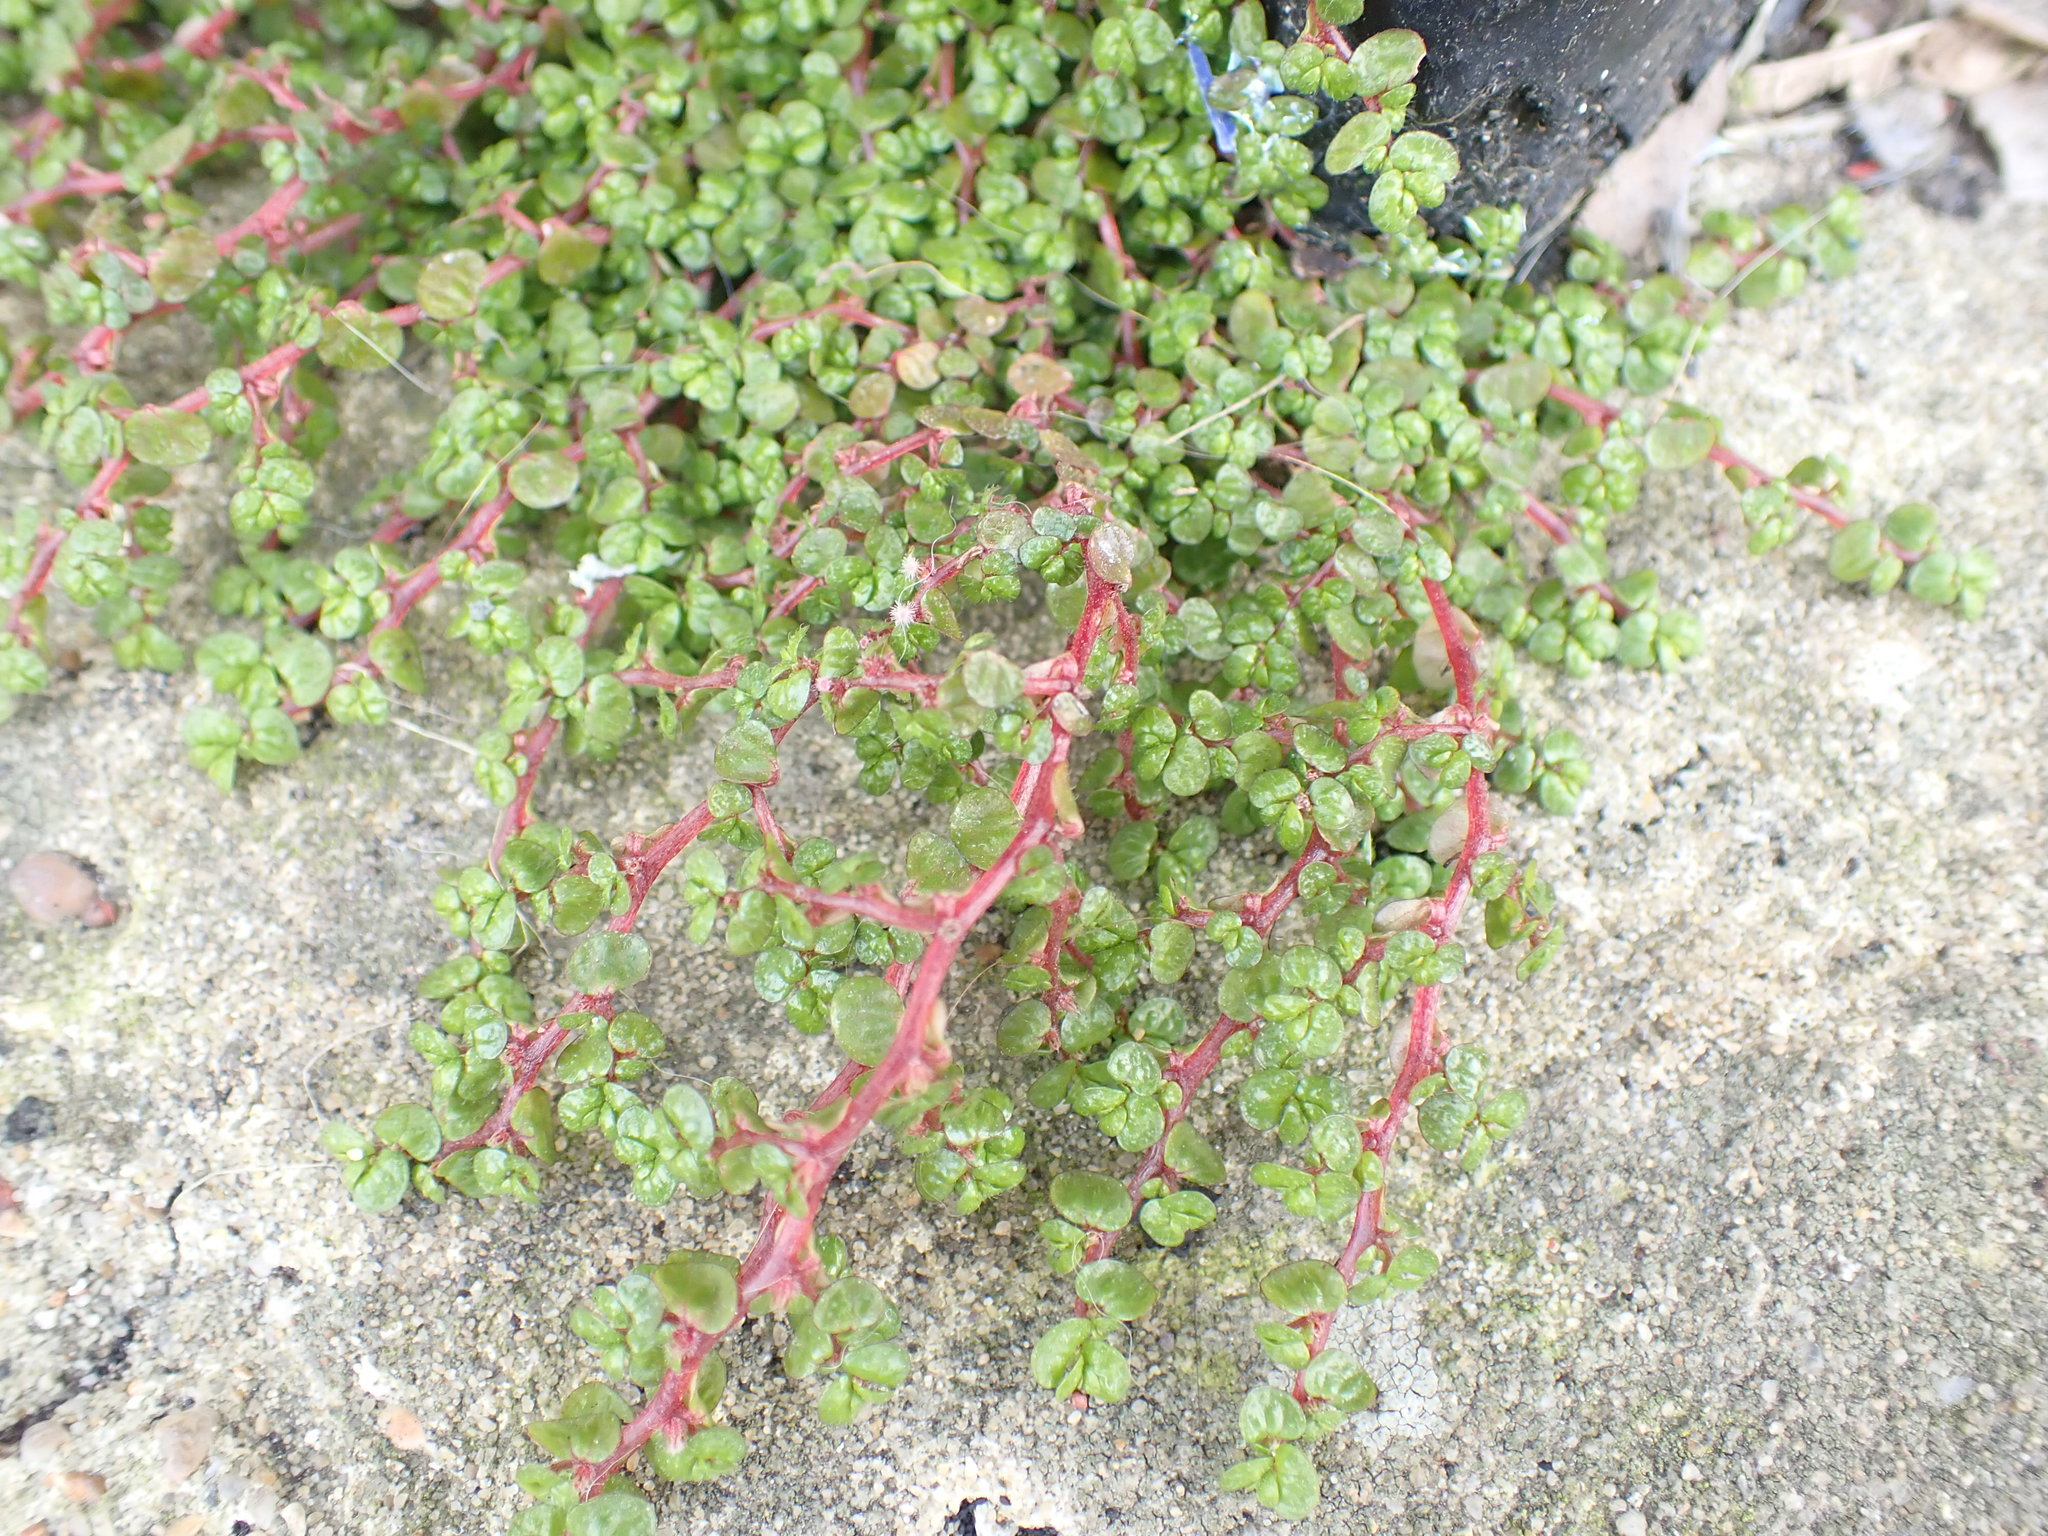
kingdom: Plantae
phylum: Tracheophyta
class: Magnoliopsida
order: Rosales
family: Urticaceae
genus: Soleirolia
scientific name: Soleirolia soleirolii
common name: Mind-your-own-business
